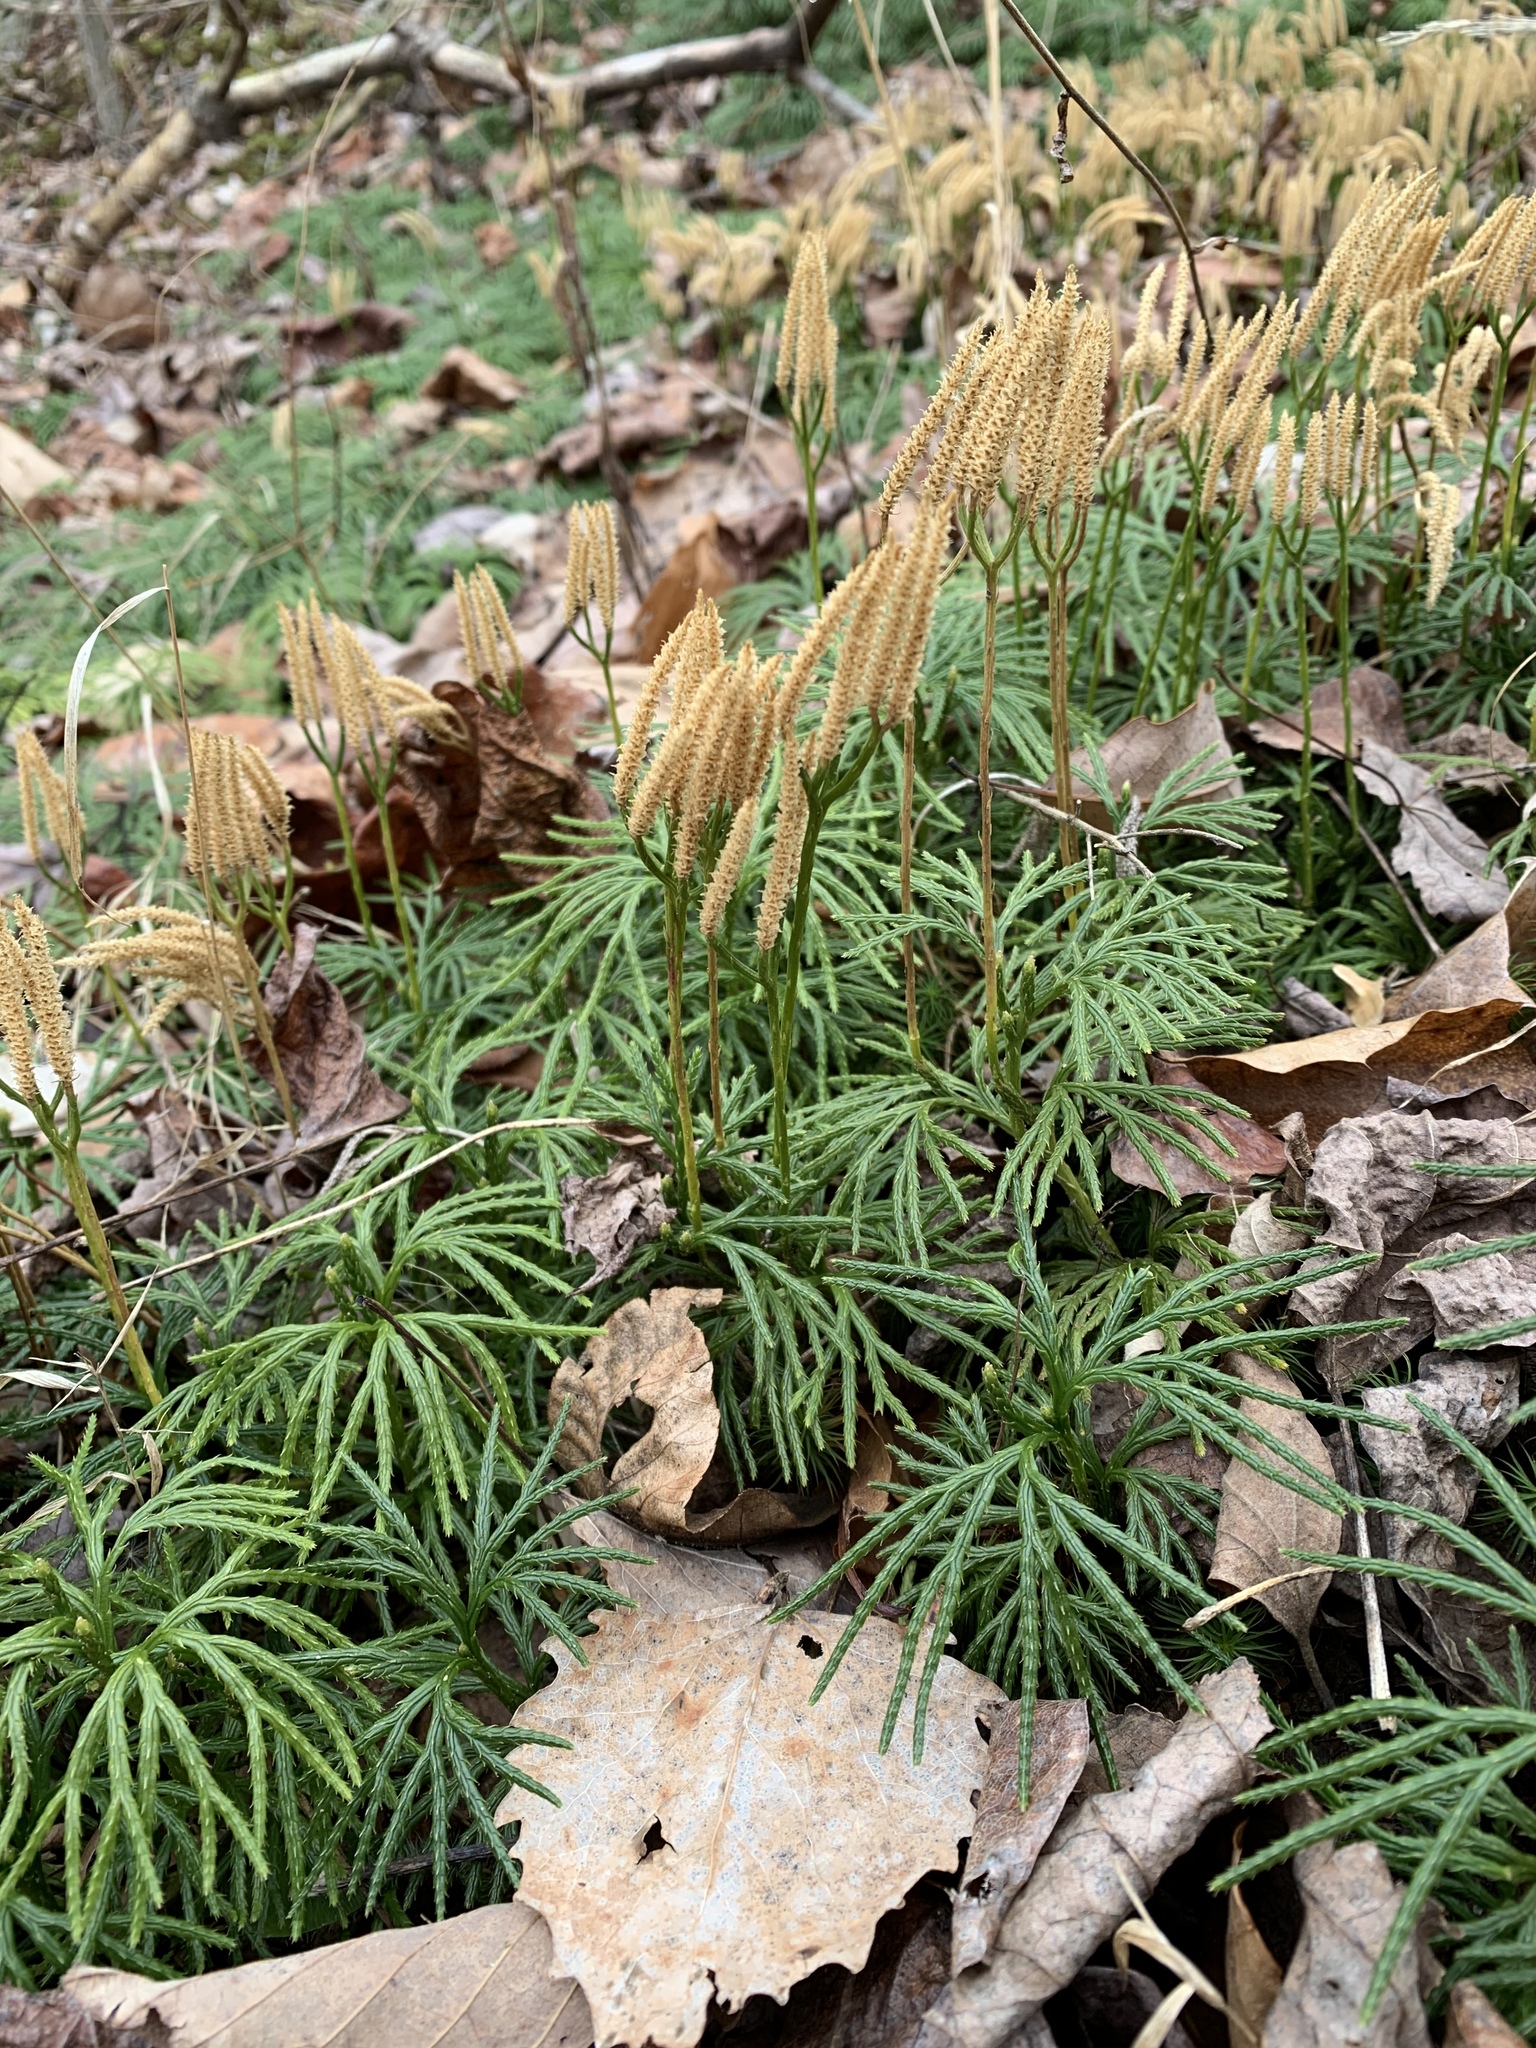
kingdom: Plantae
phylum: Tracheophyta
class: Lycopodiopsida
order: Lycopodiales
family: Lycopodiaceae
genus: Diphasiastrum
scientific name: Diphasiastrum digitatum
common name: Southern running-pine
